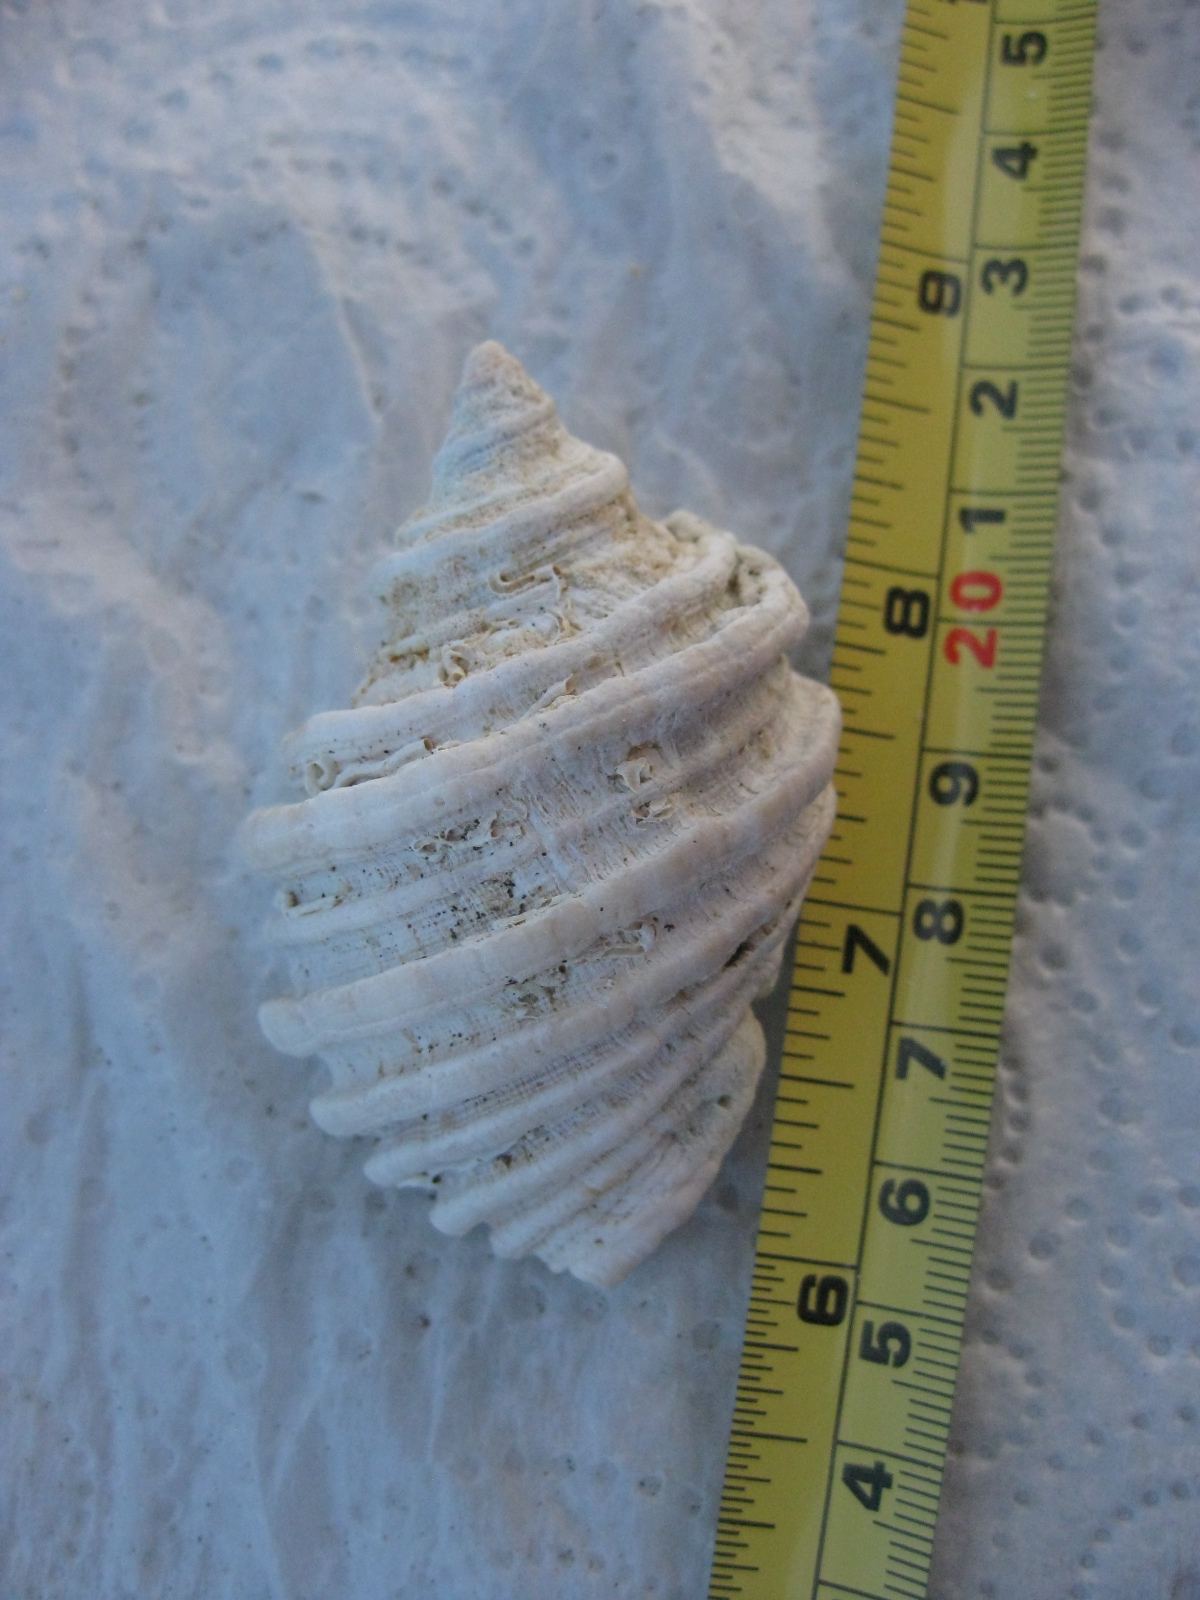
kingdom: Animalia
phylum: Mollusca
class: Gastropoda
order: Neogastropoda
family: Muricidae
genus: Dicathais
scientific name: Dicathais orbita
